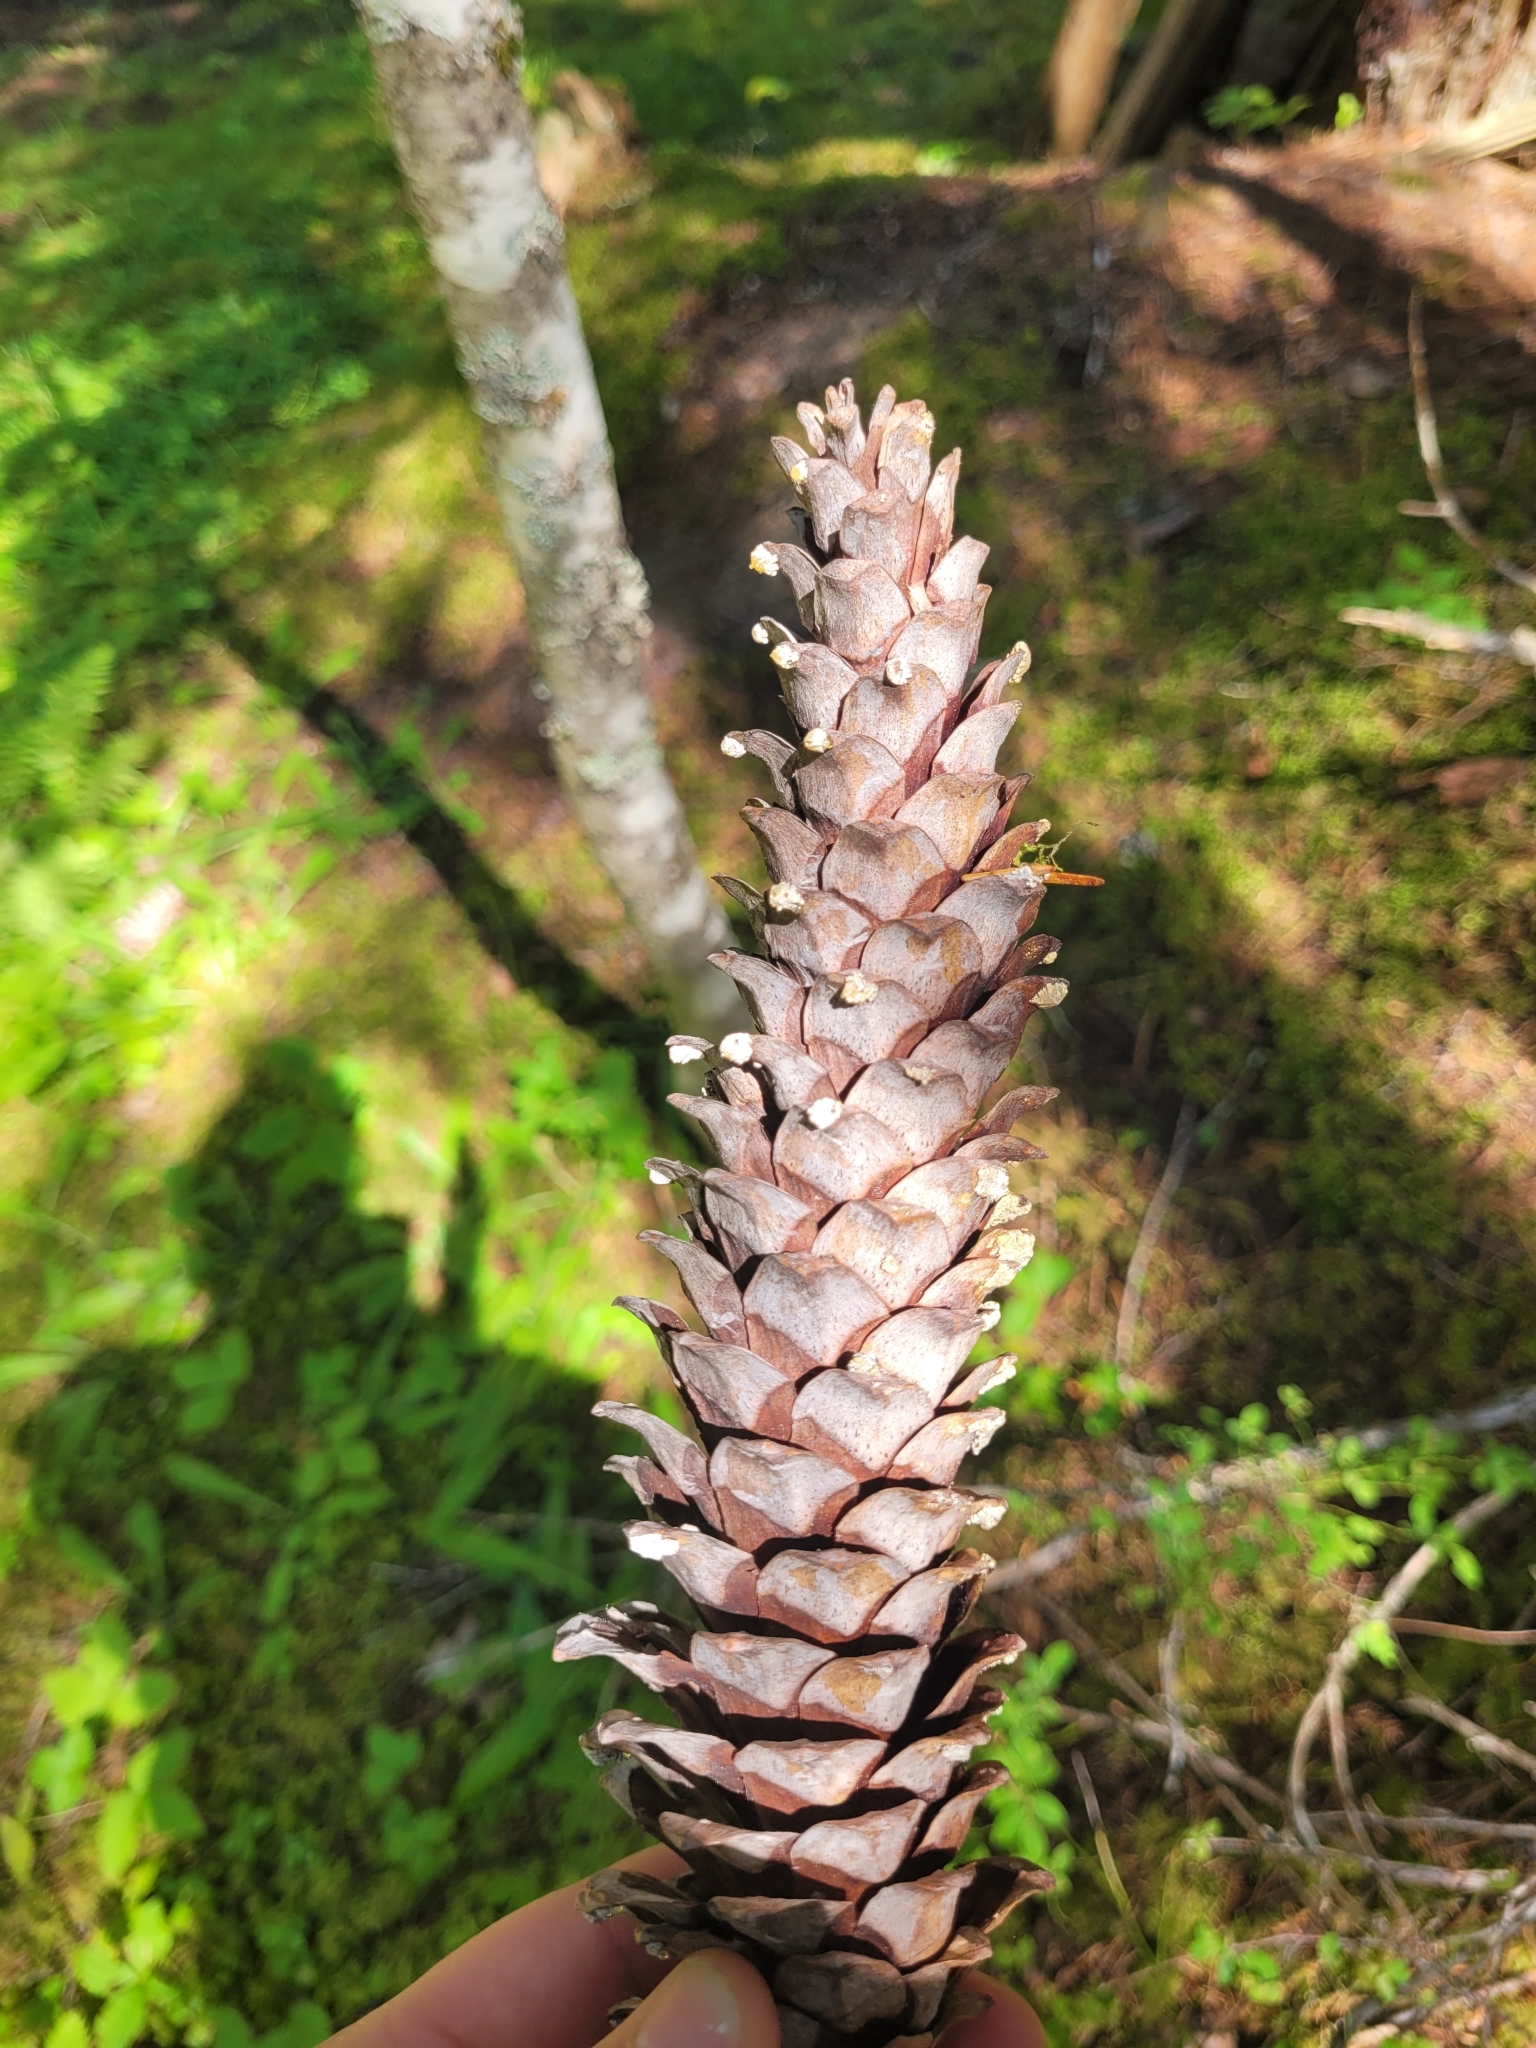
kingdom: Plantae
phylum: Tracheophyta
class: Pinopsida
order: Pinales
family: Pinaceae
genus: Pinus
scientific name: Pinus monticola
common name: Western white pine
